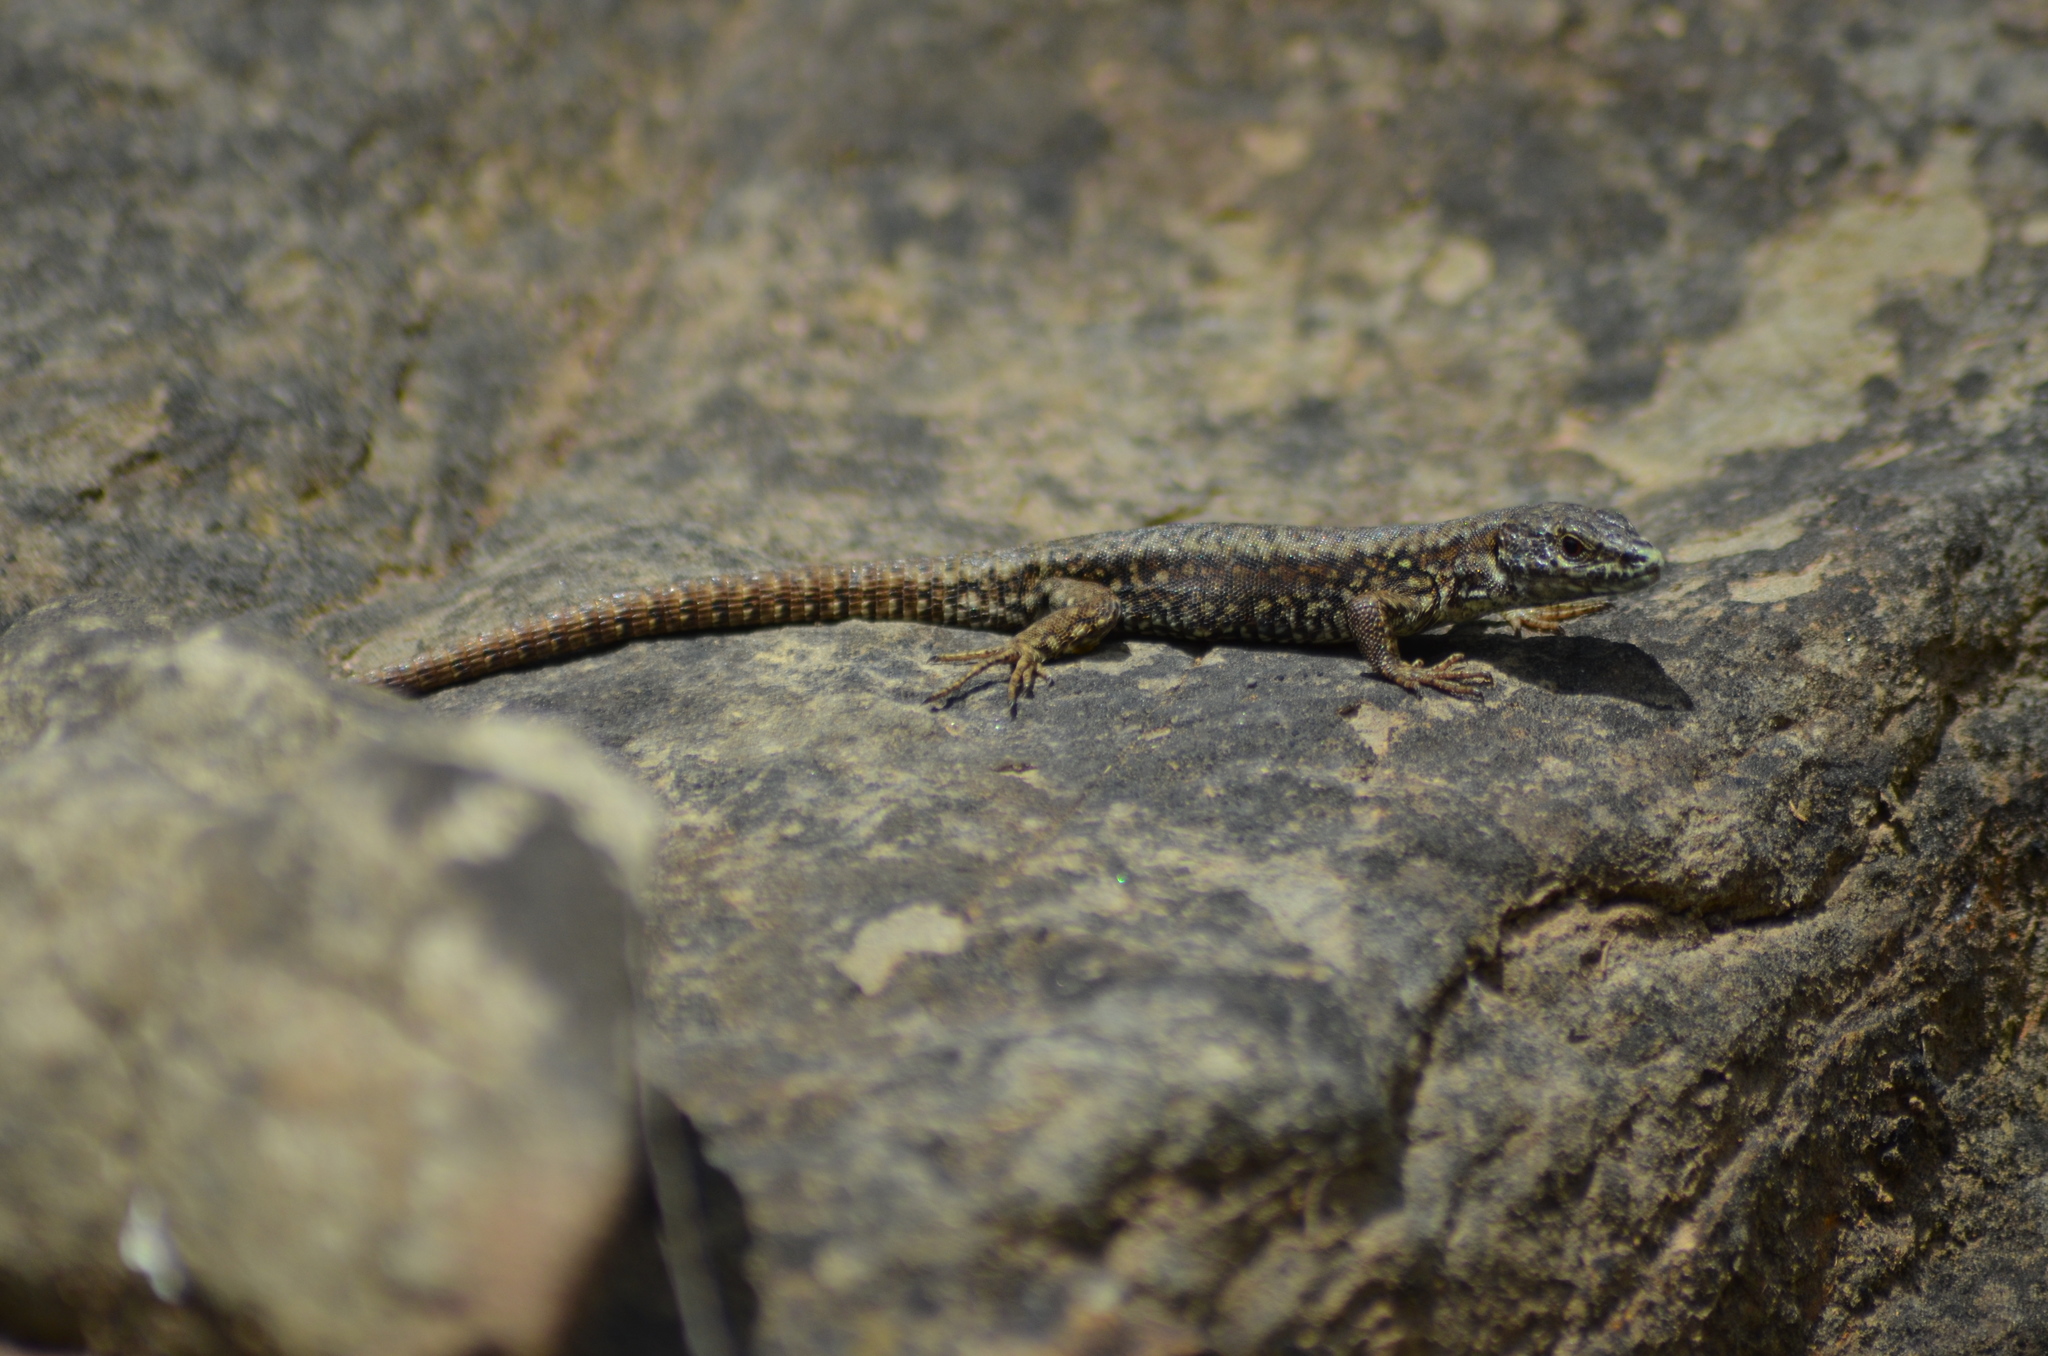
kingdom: Animalia
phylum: Chordata
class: Squamata
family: Lacertidae
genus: Podarcis
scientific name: Podarcis muralis
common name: Common wall lizard
